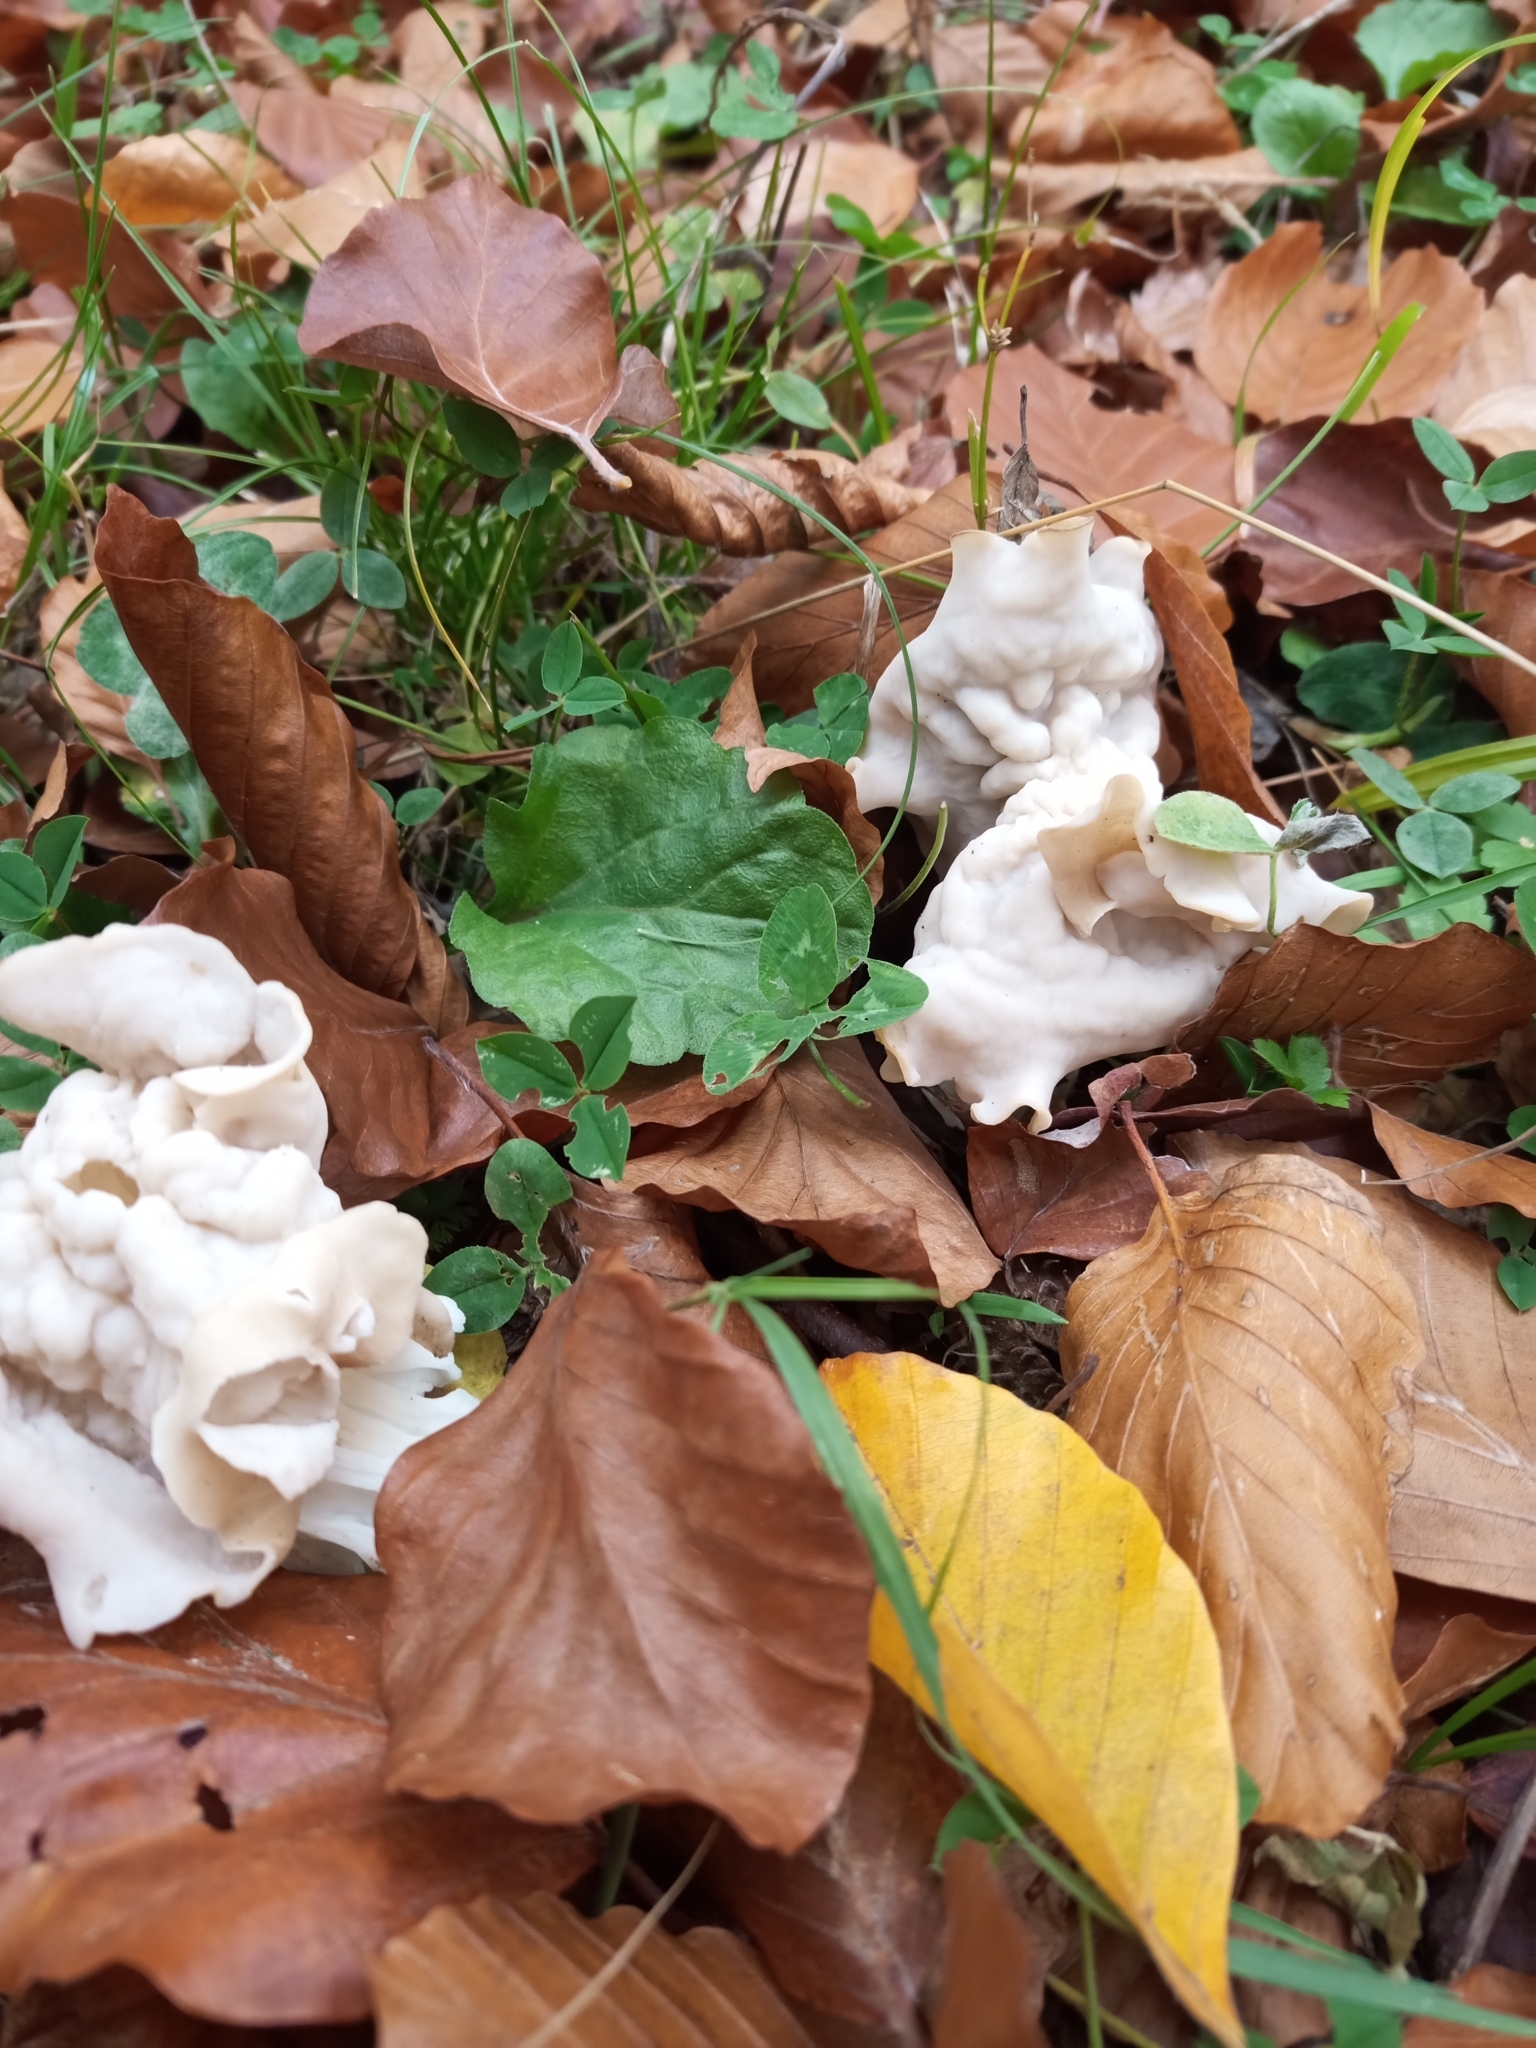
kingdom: Fungi
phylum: Ascomycota
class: Pezizomycetes
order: Pezizales
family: Helvellaceae
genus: Helvella
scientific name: Helvella crispa
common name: White saddle
